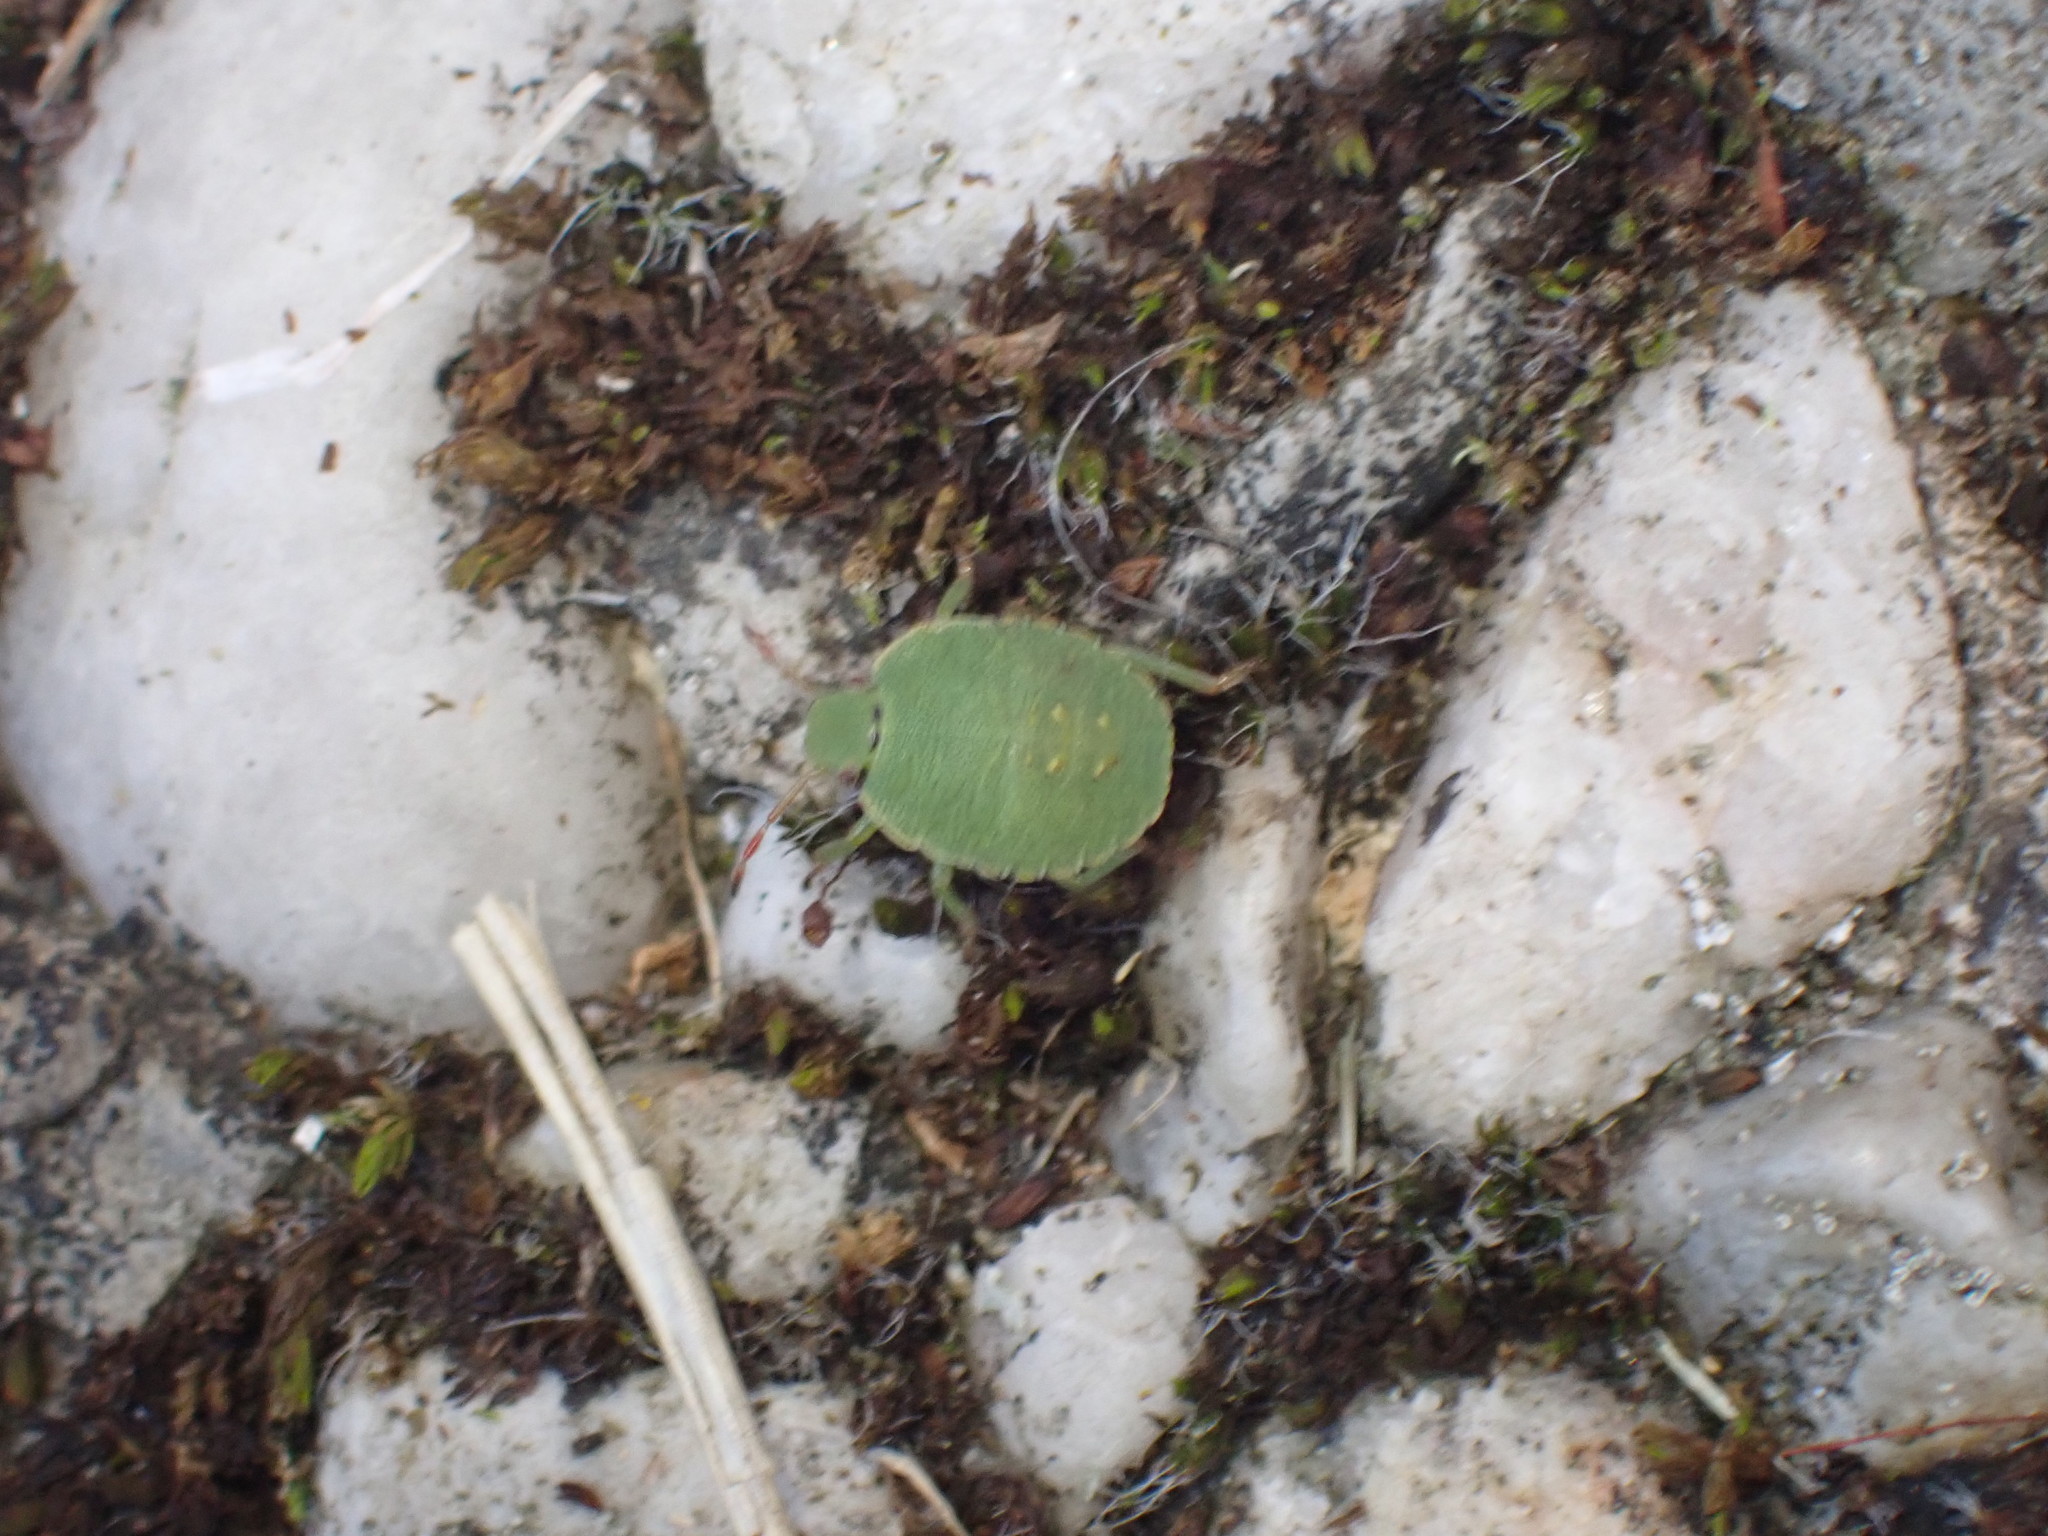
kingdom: Animalia
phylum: Arthropoda
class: Insecta
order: Hemiptera
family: Pentatomidae
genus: Palomena
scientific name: Palomena prasina
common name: Green shieldbug
